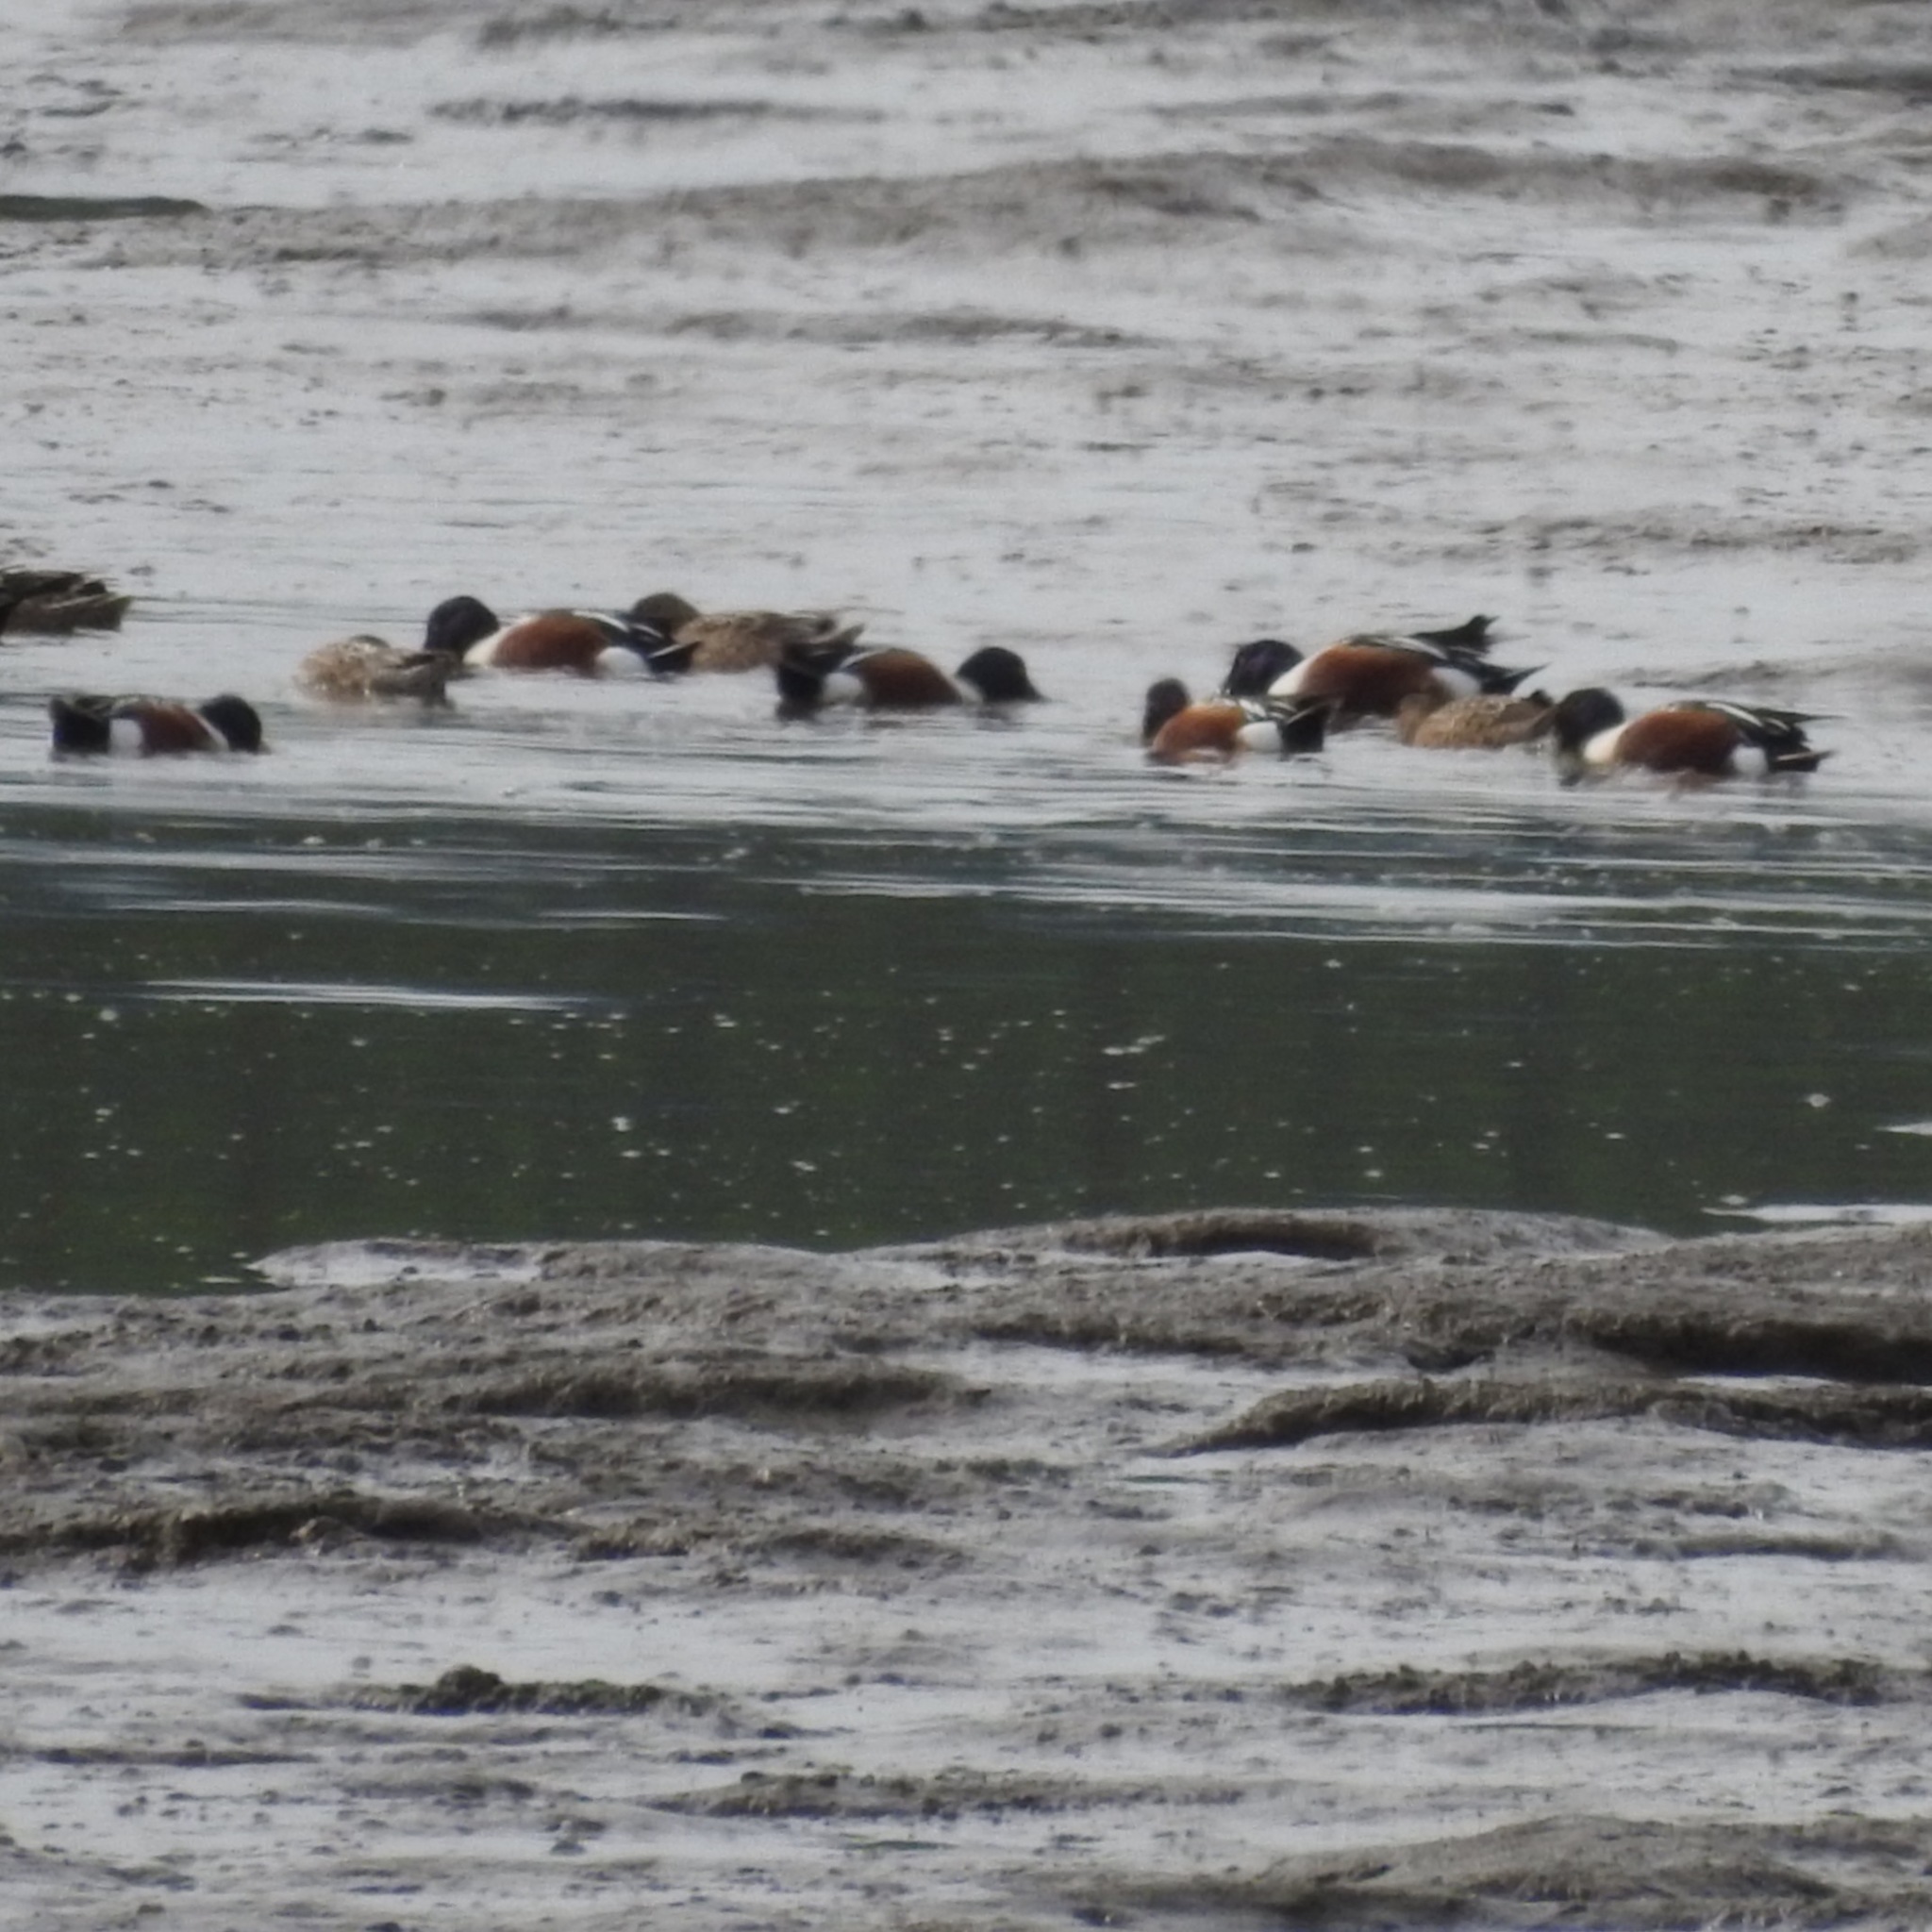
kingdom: Animalia
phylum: Chordata
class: Aves
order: Anseriformes
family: Anatidae
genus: Spatula
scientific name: Spatula clypeata
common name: Northern shoveler
